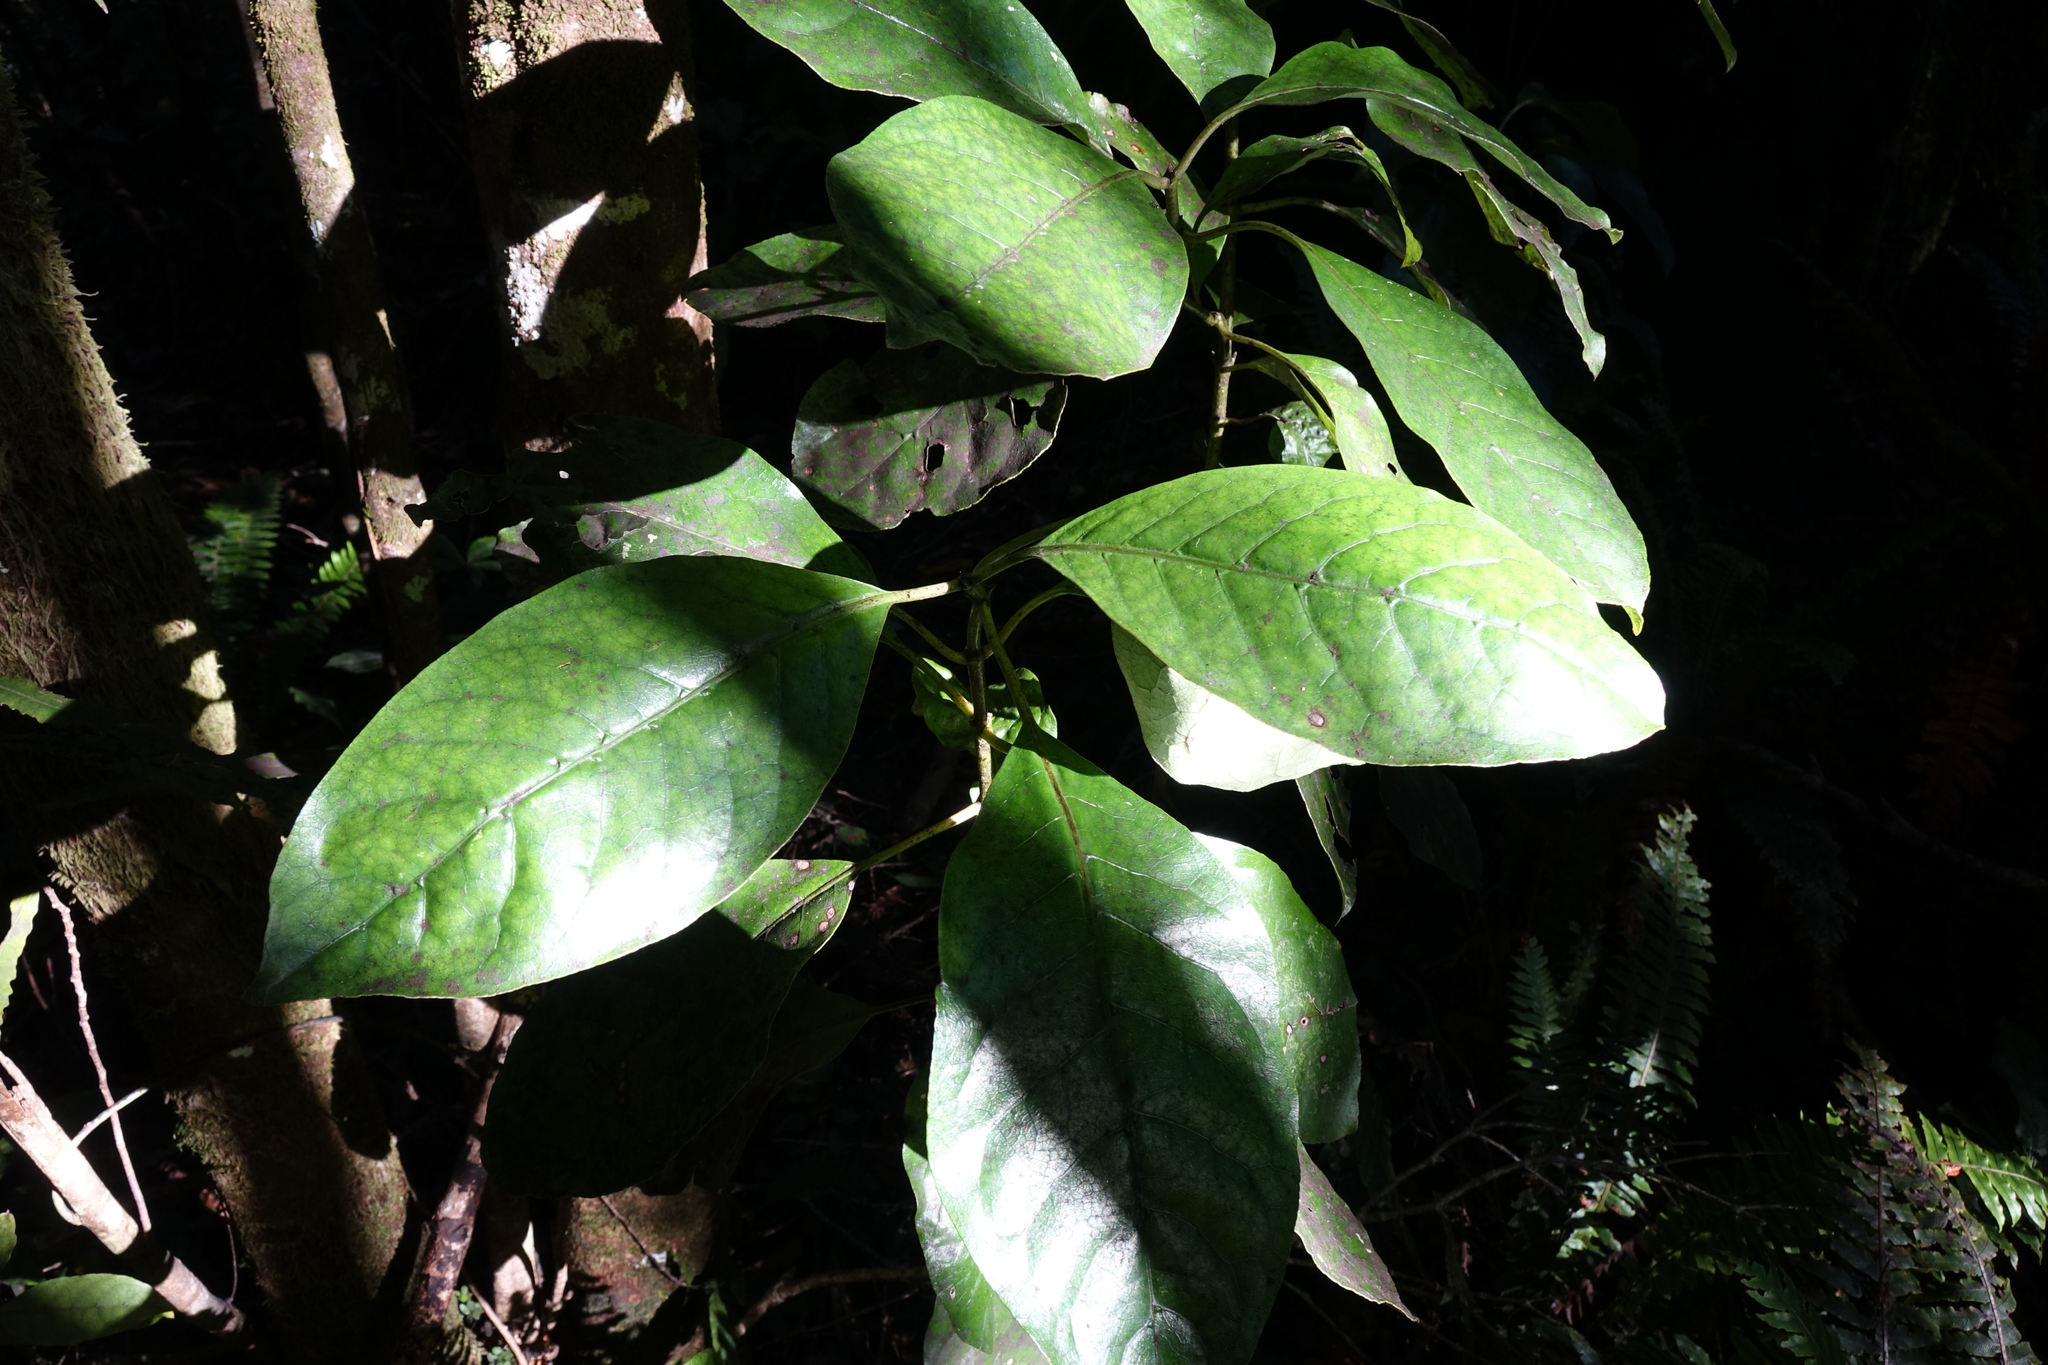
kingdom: Plantae
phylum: Tracheophyta
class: Magnoliopsida
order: Gentianales
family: Rubiaceae
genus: Coprosma
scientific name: Coprosma autumnalis
